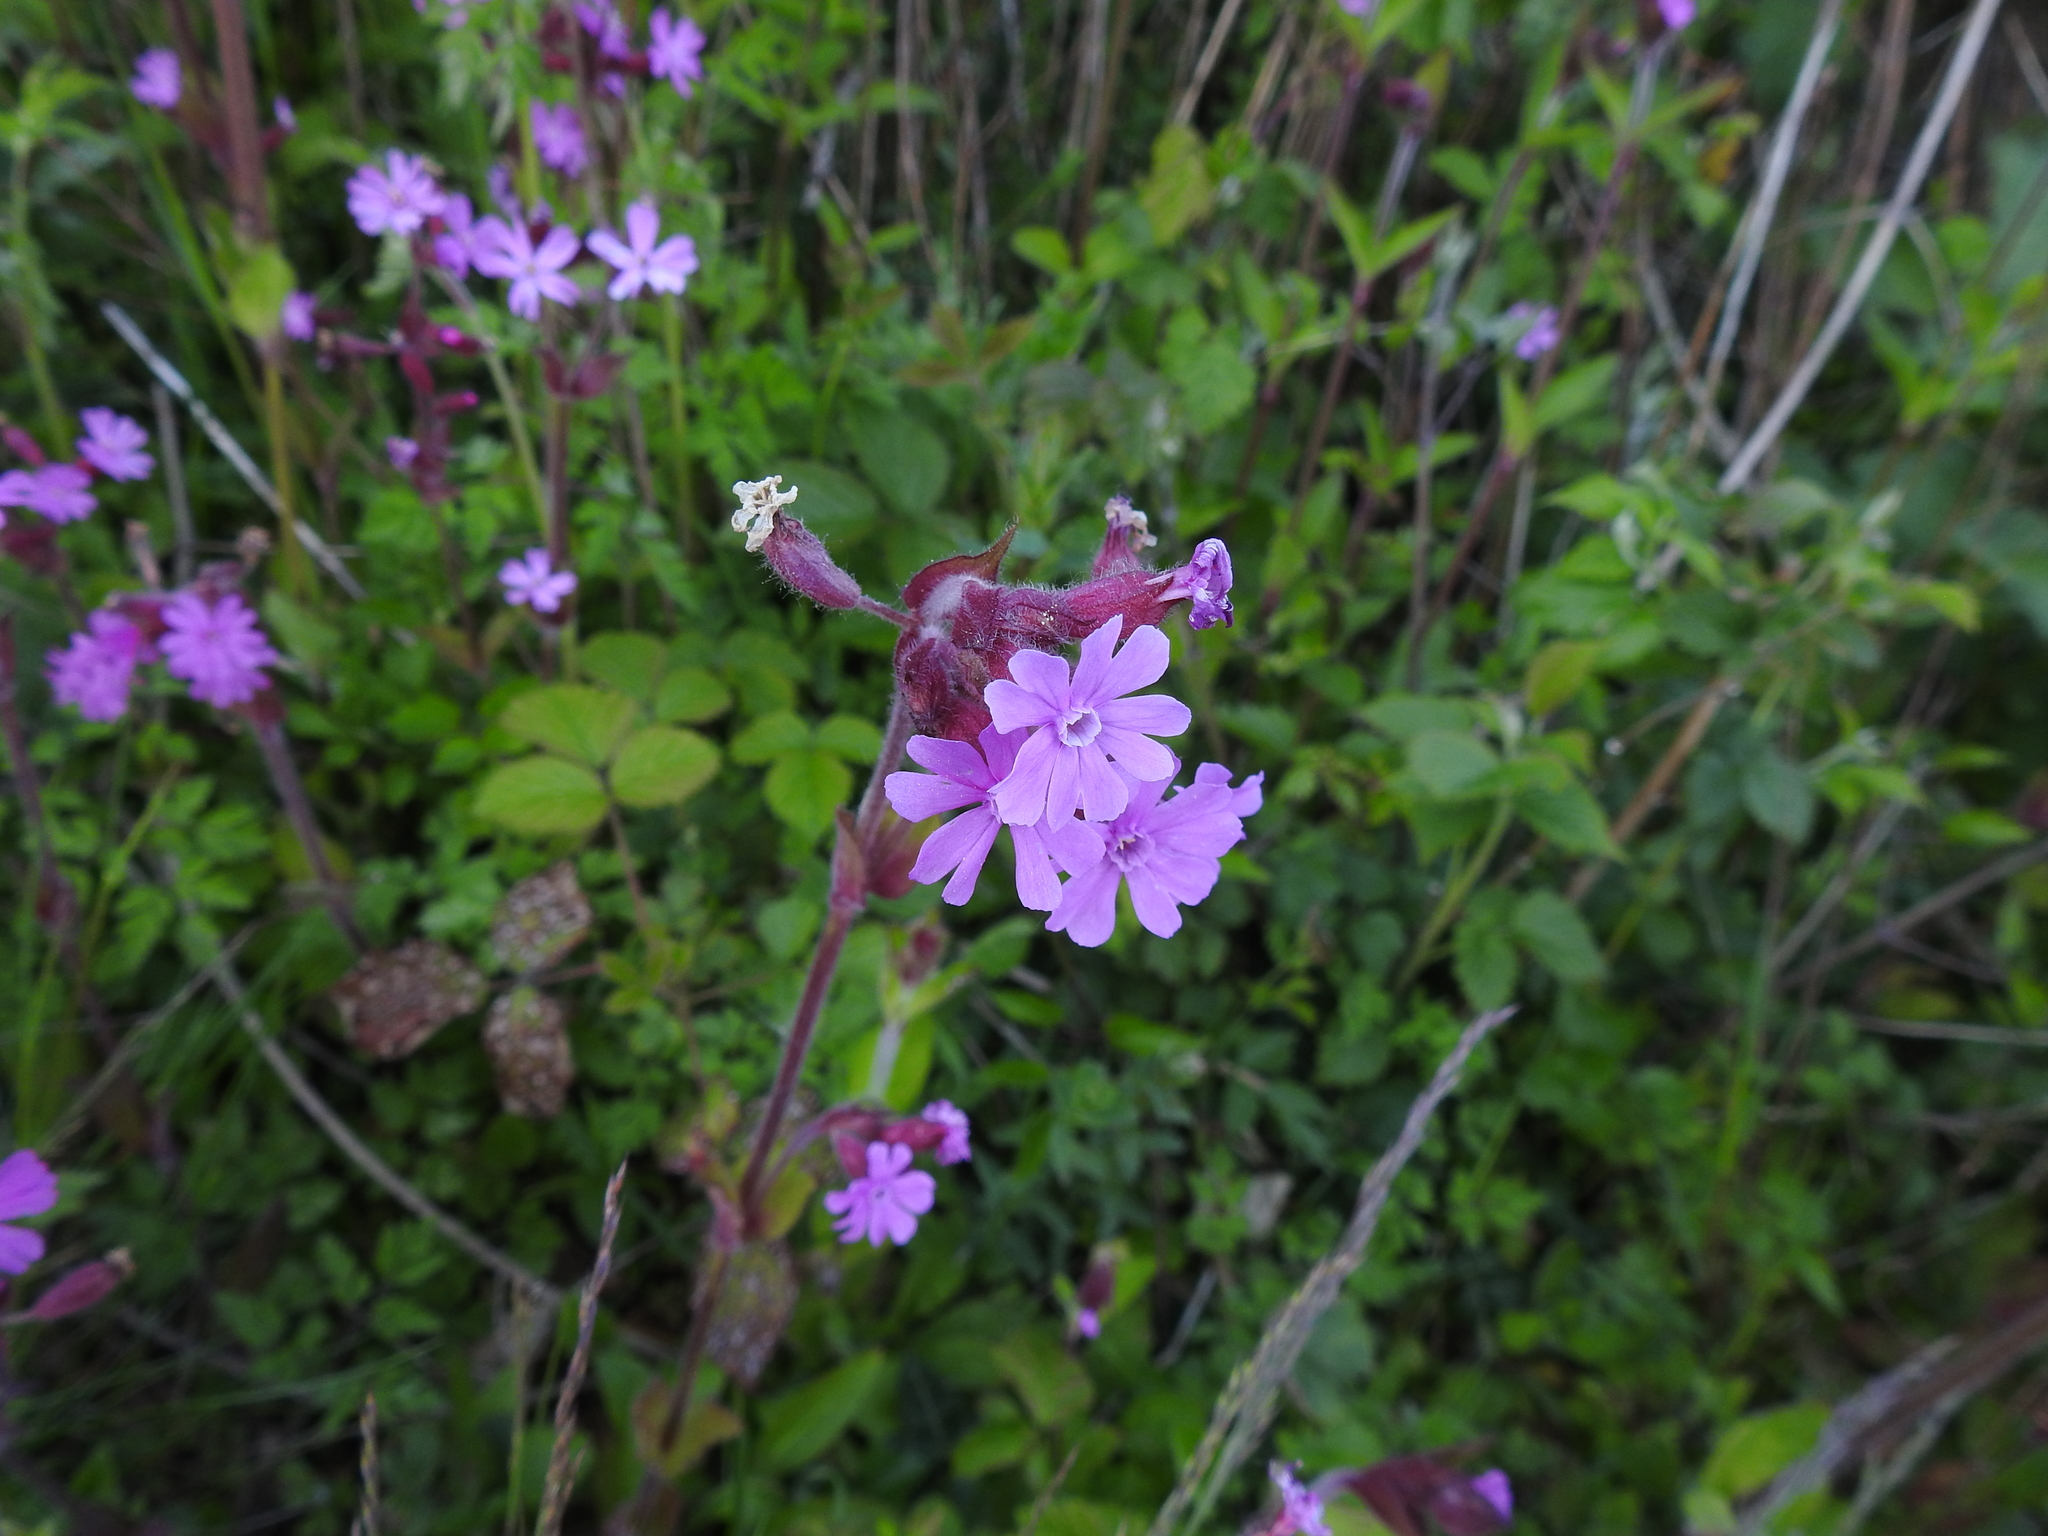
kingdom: Plantae
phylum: Tracheophyta
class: Magnoliopsida
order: Caryophyllales
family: Caryophyllaceae
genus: Silene
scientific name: Silene dioica
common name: Red campion
